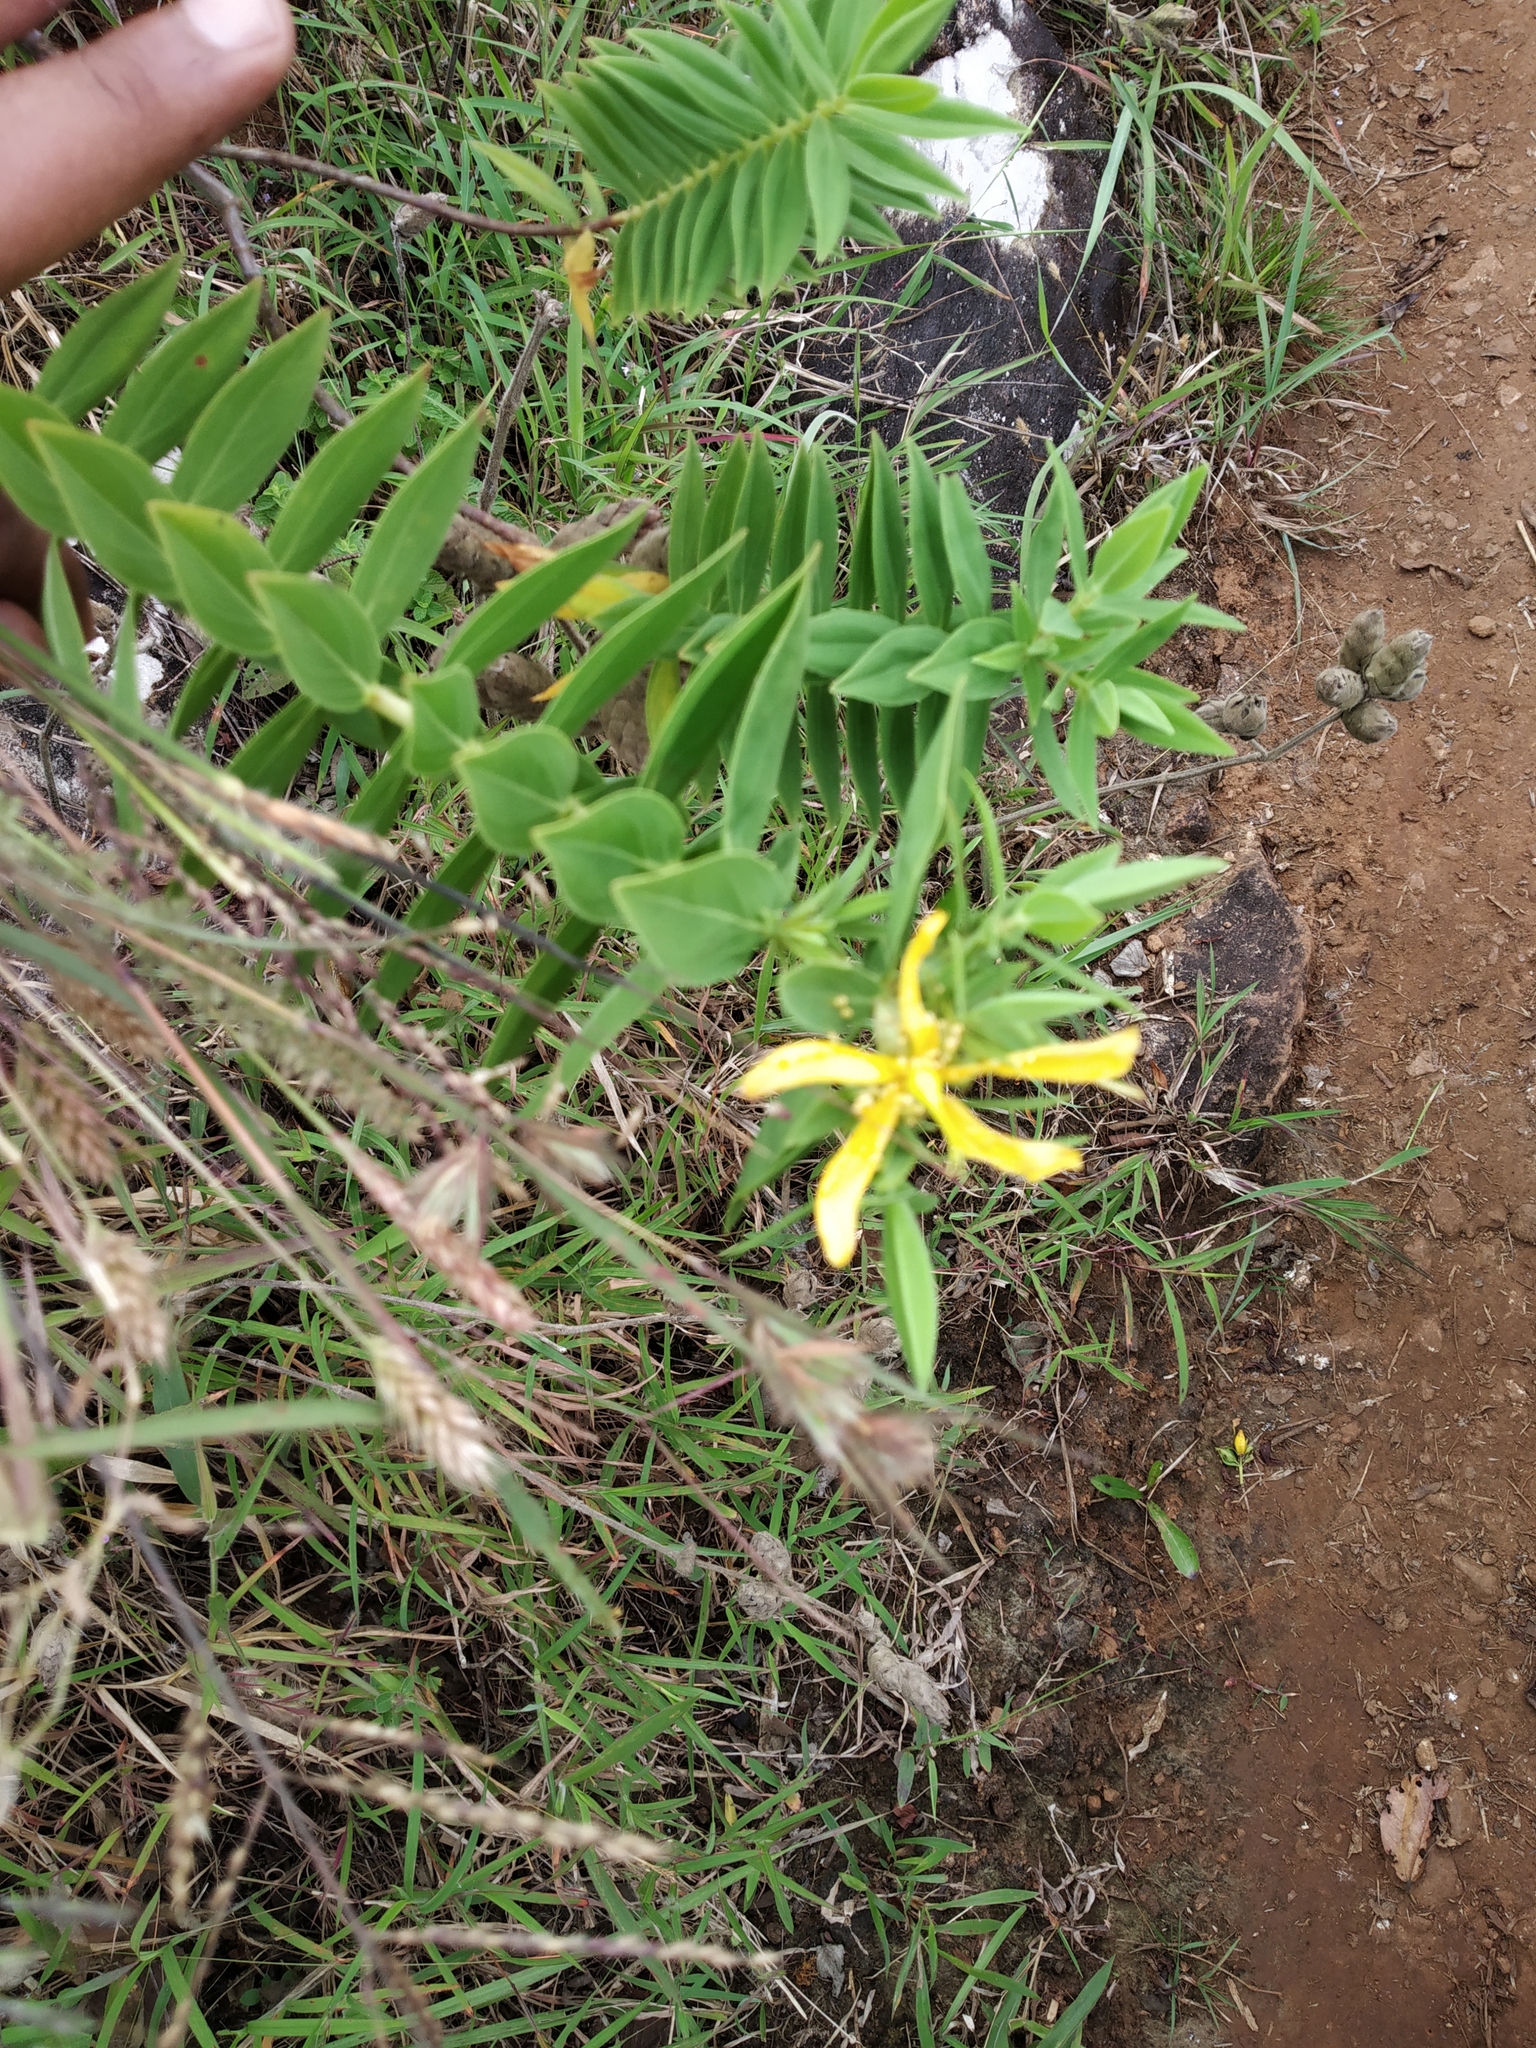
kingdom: Plantae
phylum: Tracheophyta
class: Magnoliopsida
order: Malpighiales
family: Hypericaceae
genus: Hypericum
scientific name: Hypericum mysurense
